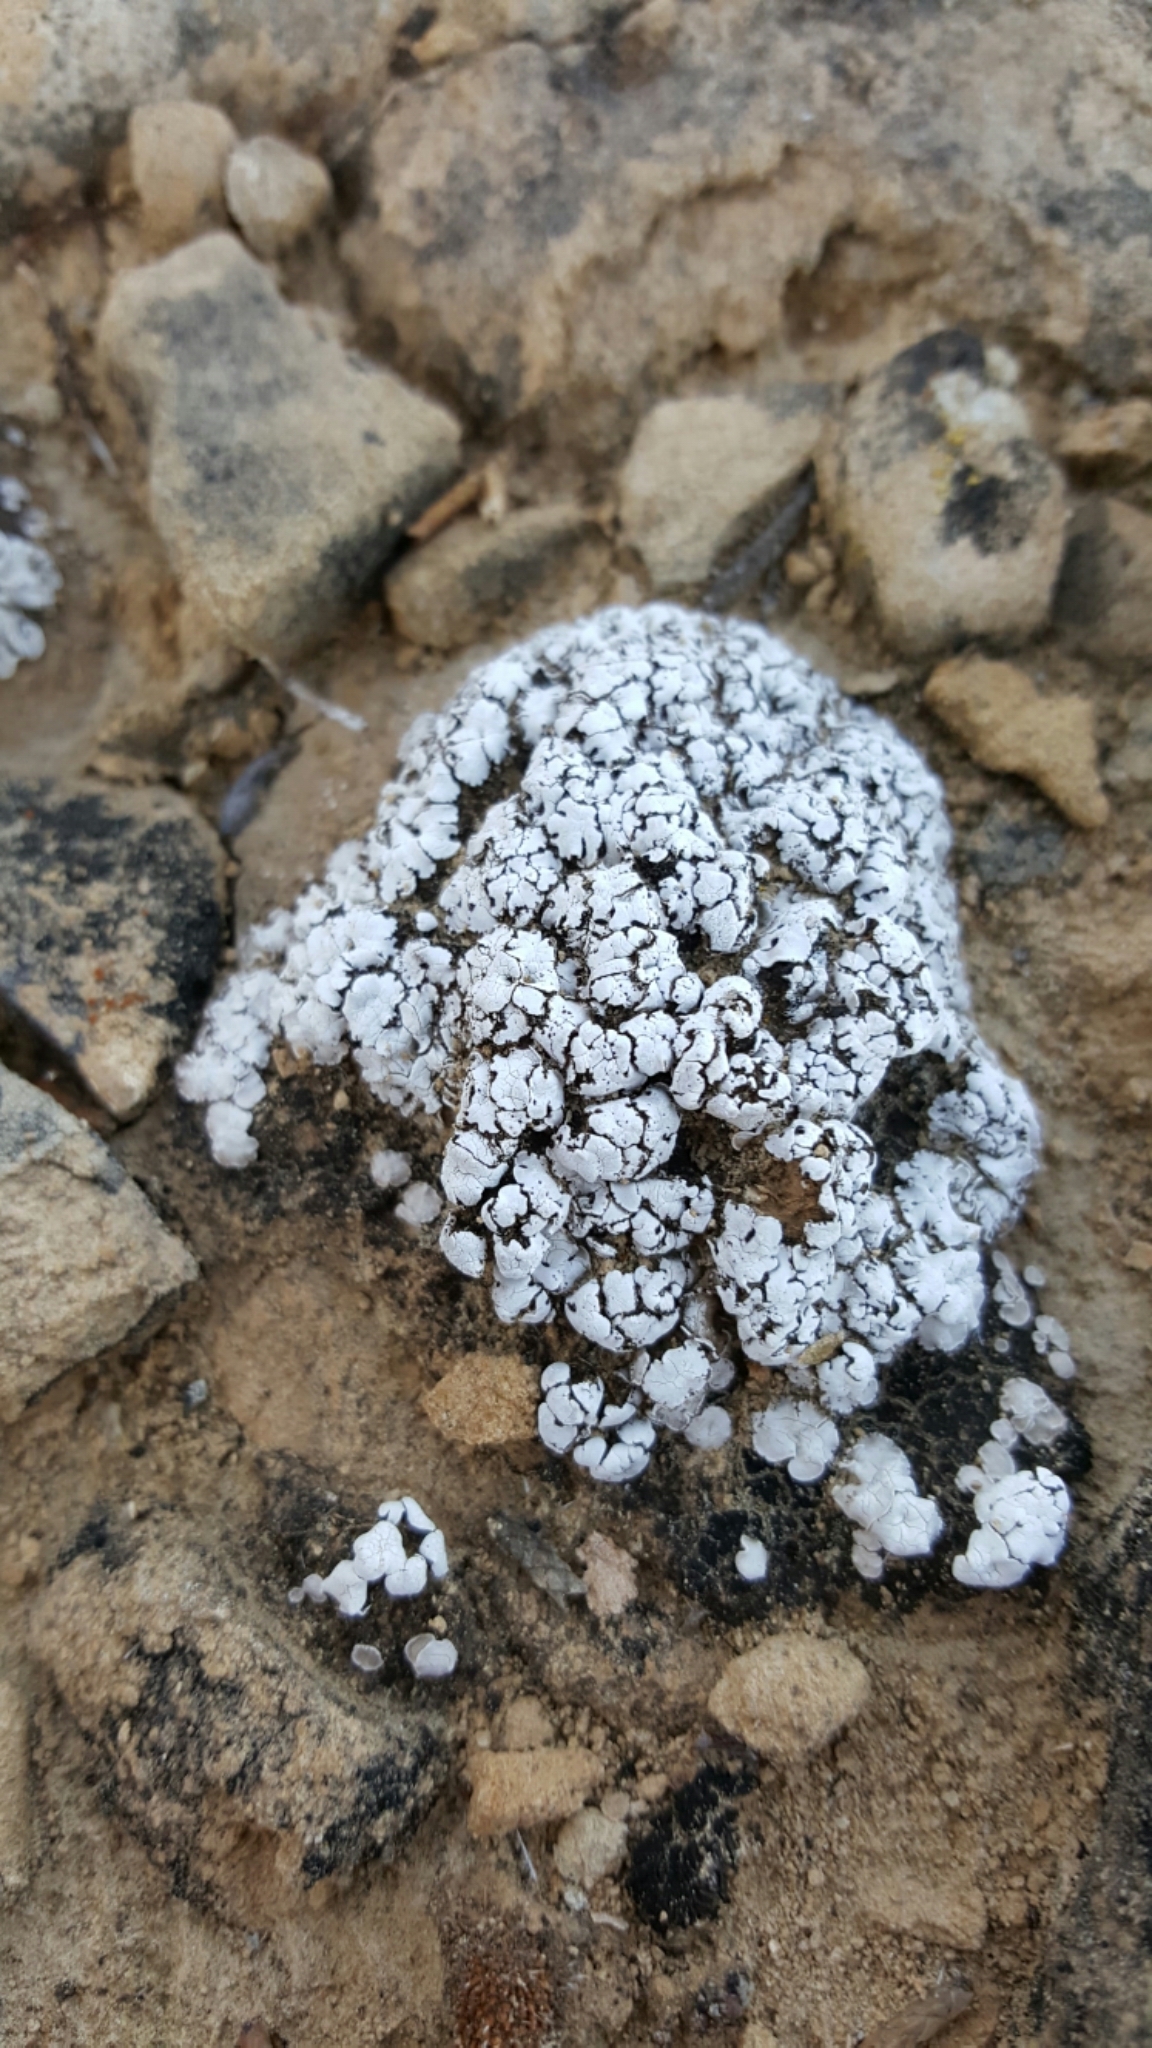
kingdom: Fungi
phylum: Ascomycota
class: Lecanoromycetes
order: Lecanorales
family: Psoraceae
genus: Psora
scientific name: Psora cerebriformis
